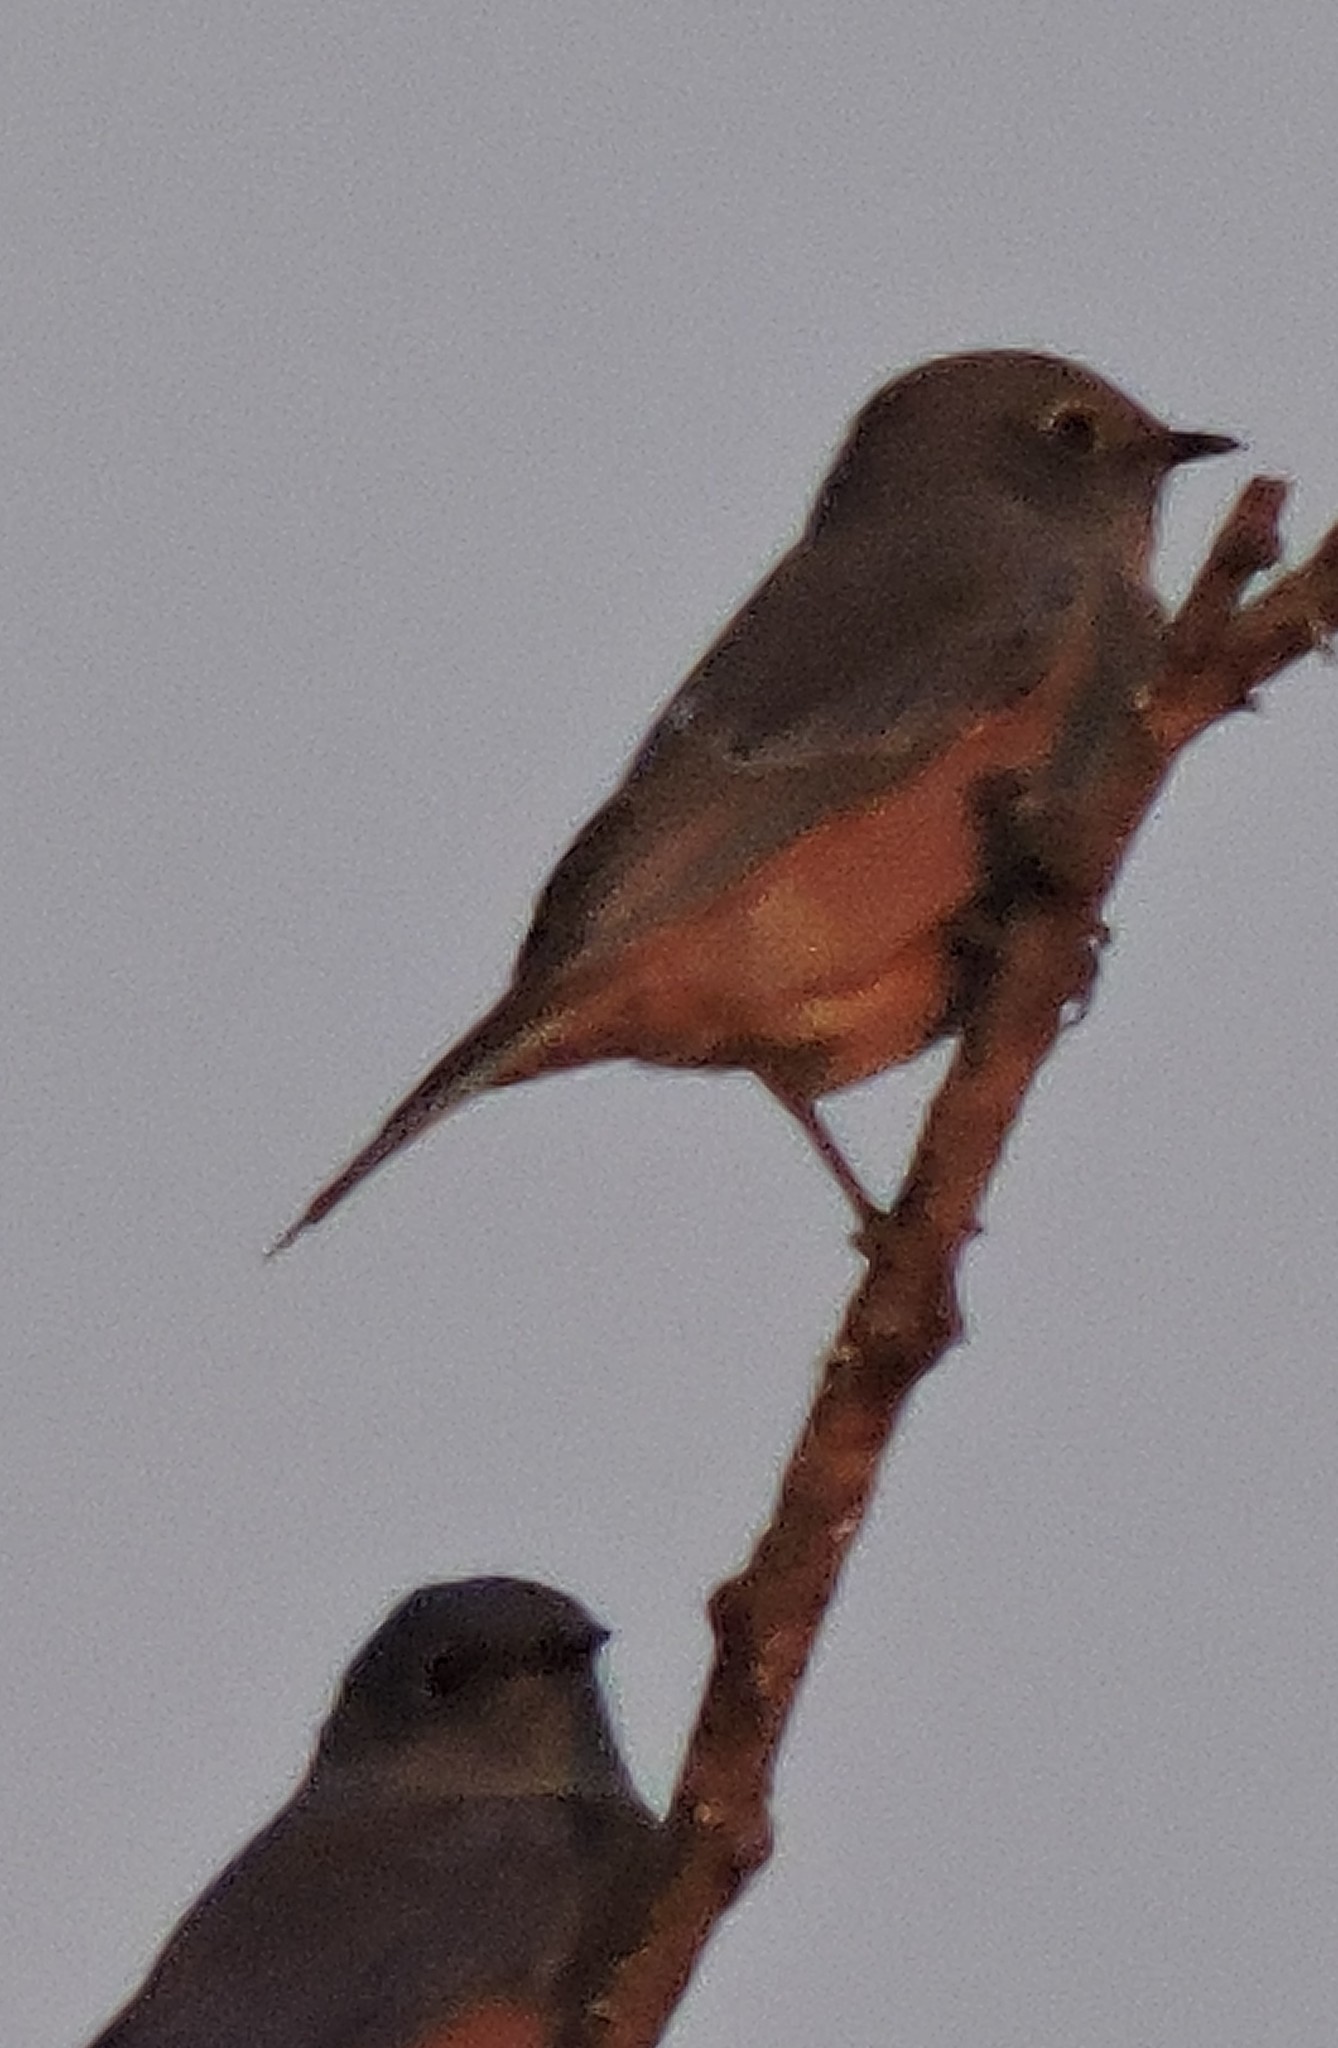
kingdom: Animalia
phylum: Chordata
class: Aves
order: Passeriformes
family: Turdidae
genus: Sialia
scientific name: Sialia mexicana
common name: Western bluebird
